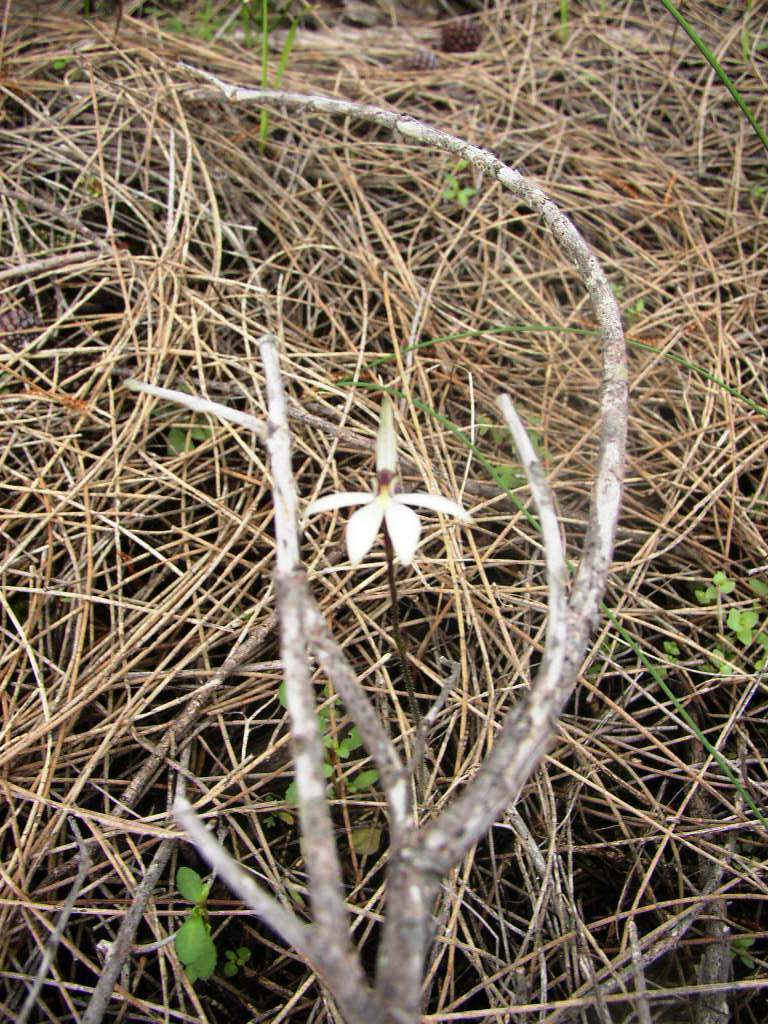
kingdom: Plantae
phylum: Tracheophyta
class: Liliopsida
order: Asparagales
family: Orchidaceae
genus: Caladenia
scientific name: Caladenia saccharata
